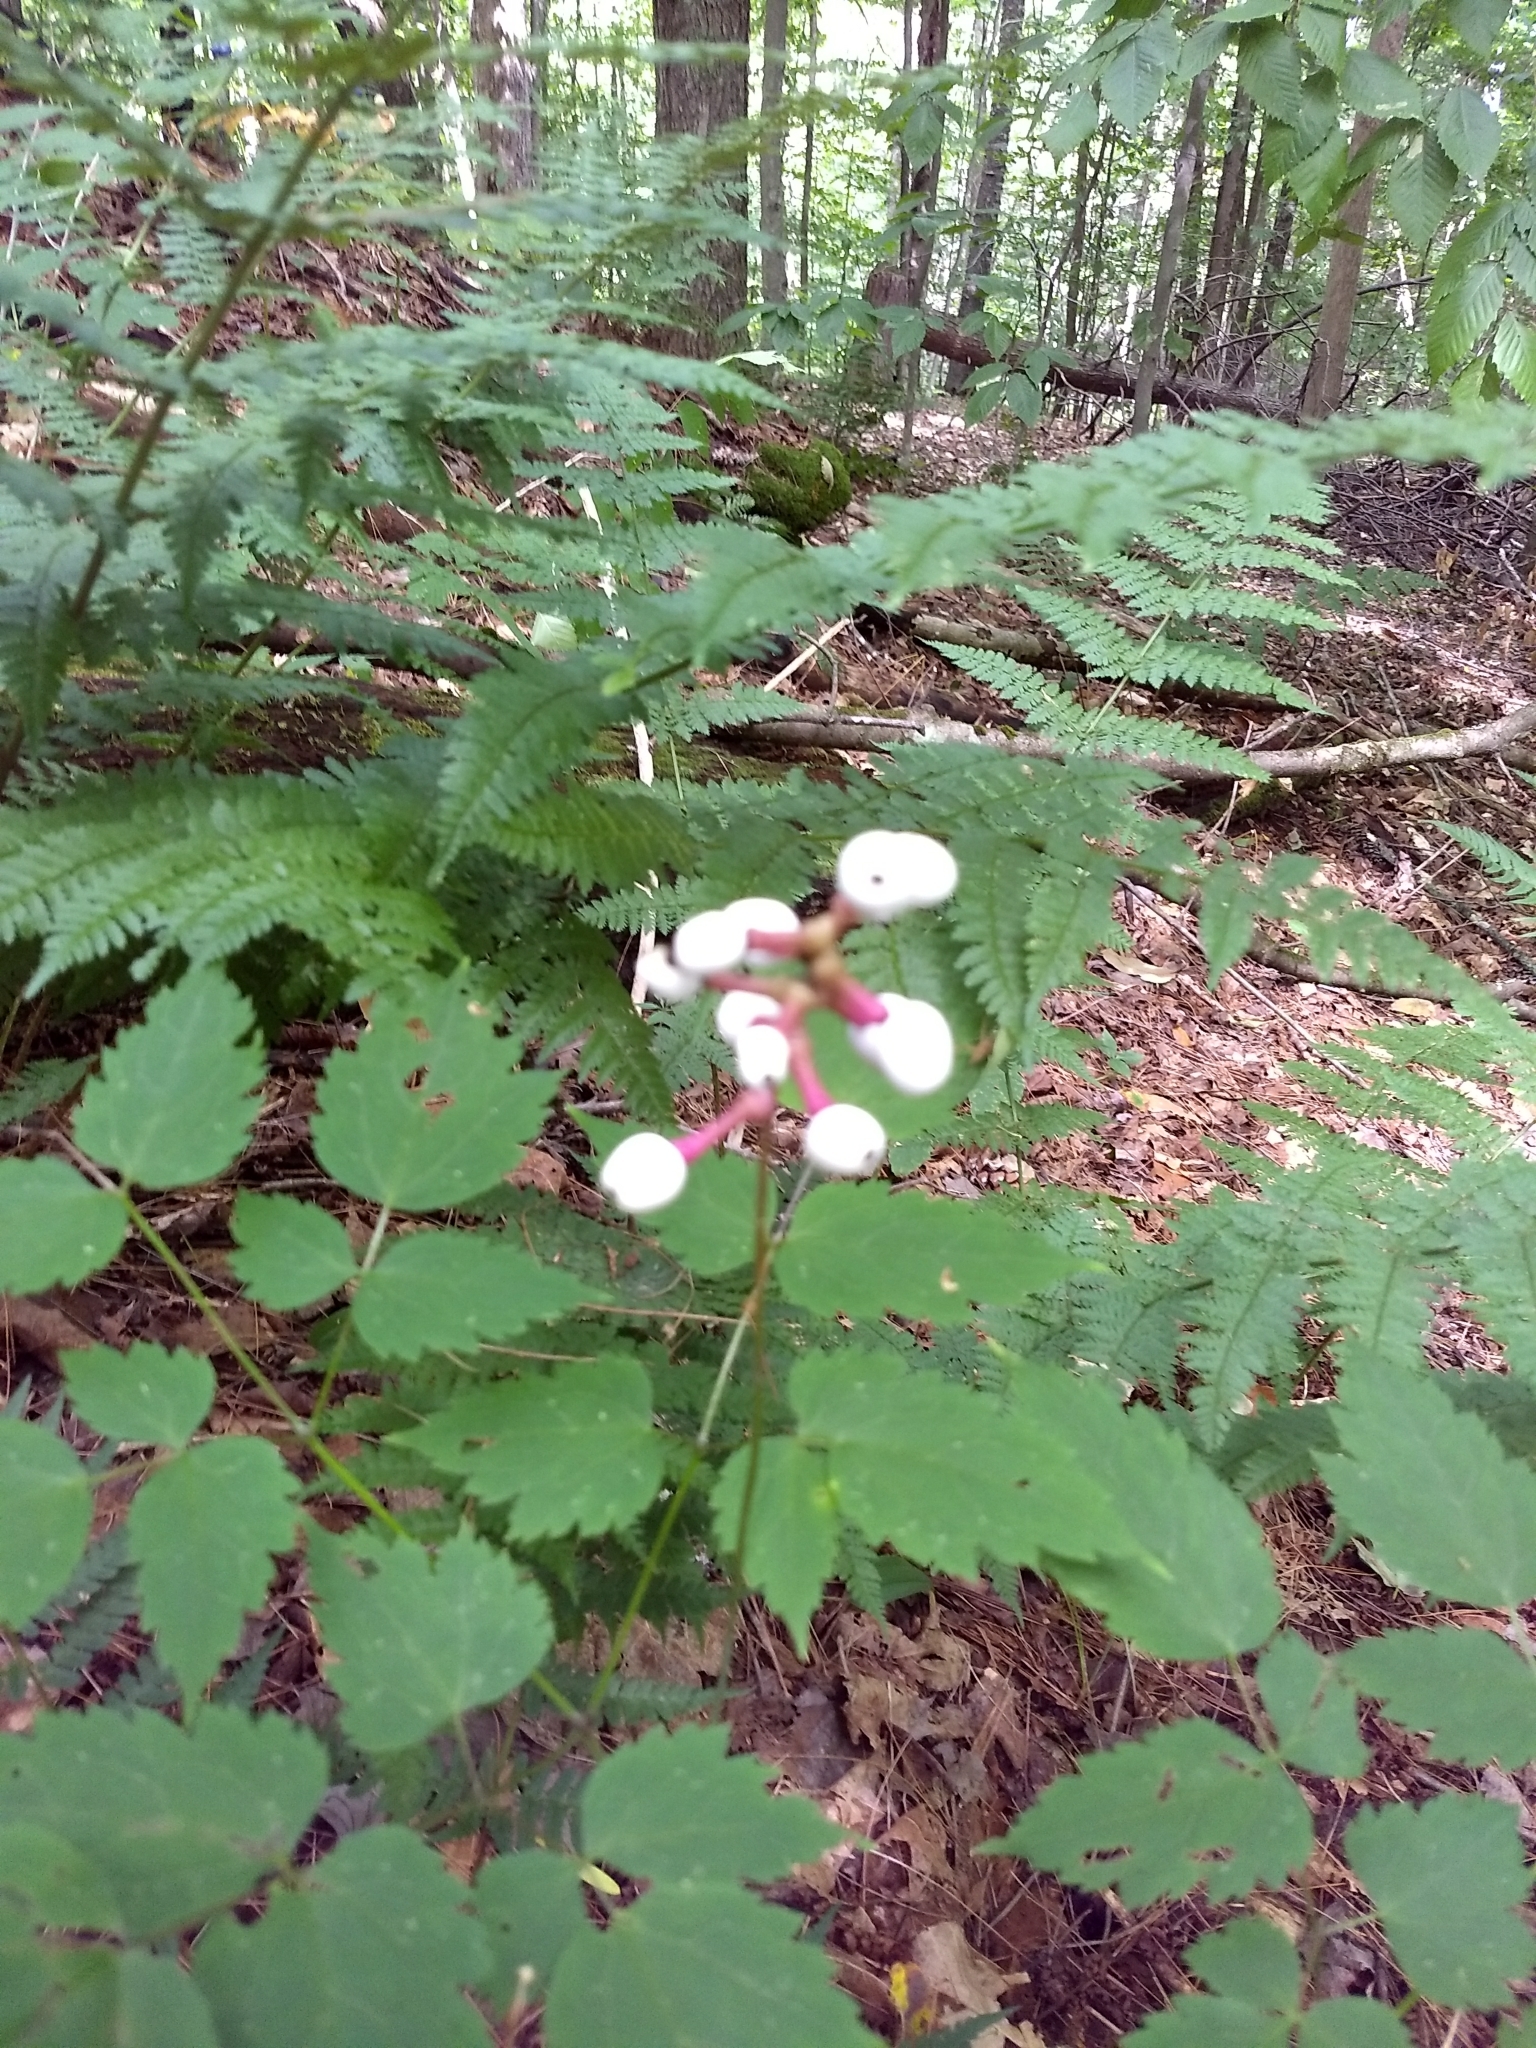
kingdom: Plantae
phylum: Tracheophyta
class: Magnoliopsida
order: Ranunculales
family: Ranunculaceae
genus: Actaea
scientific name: Actaea pachypoda
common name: Doll's-eyes
